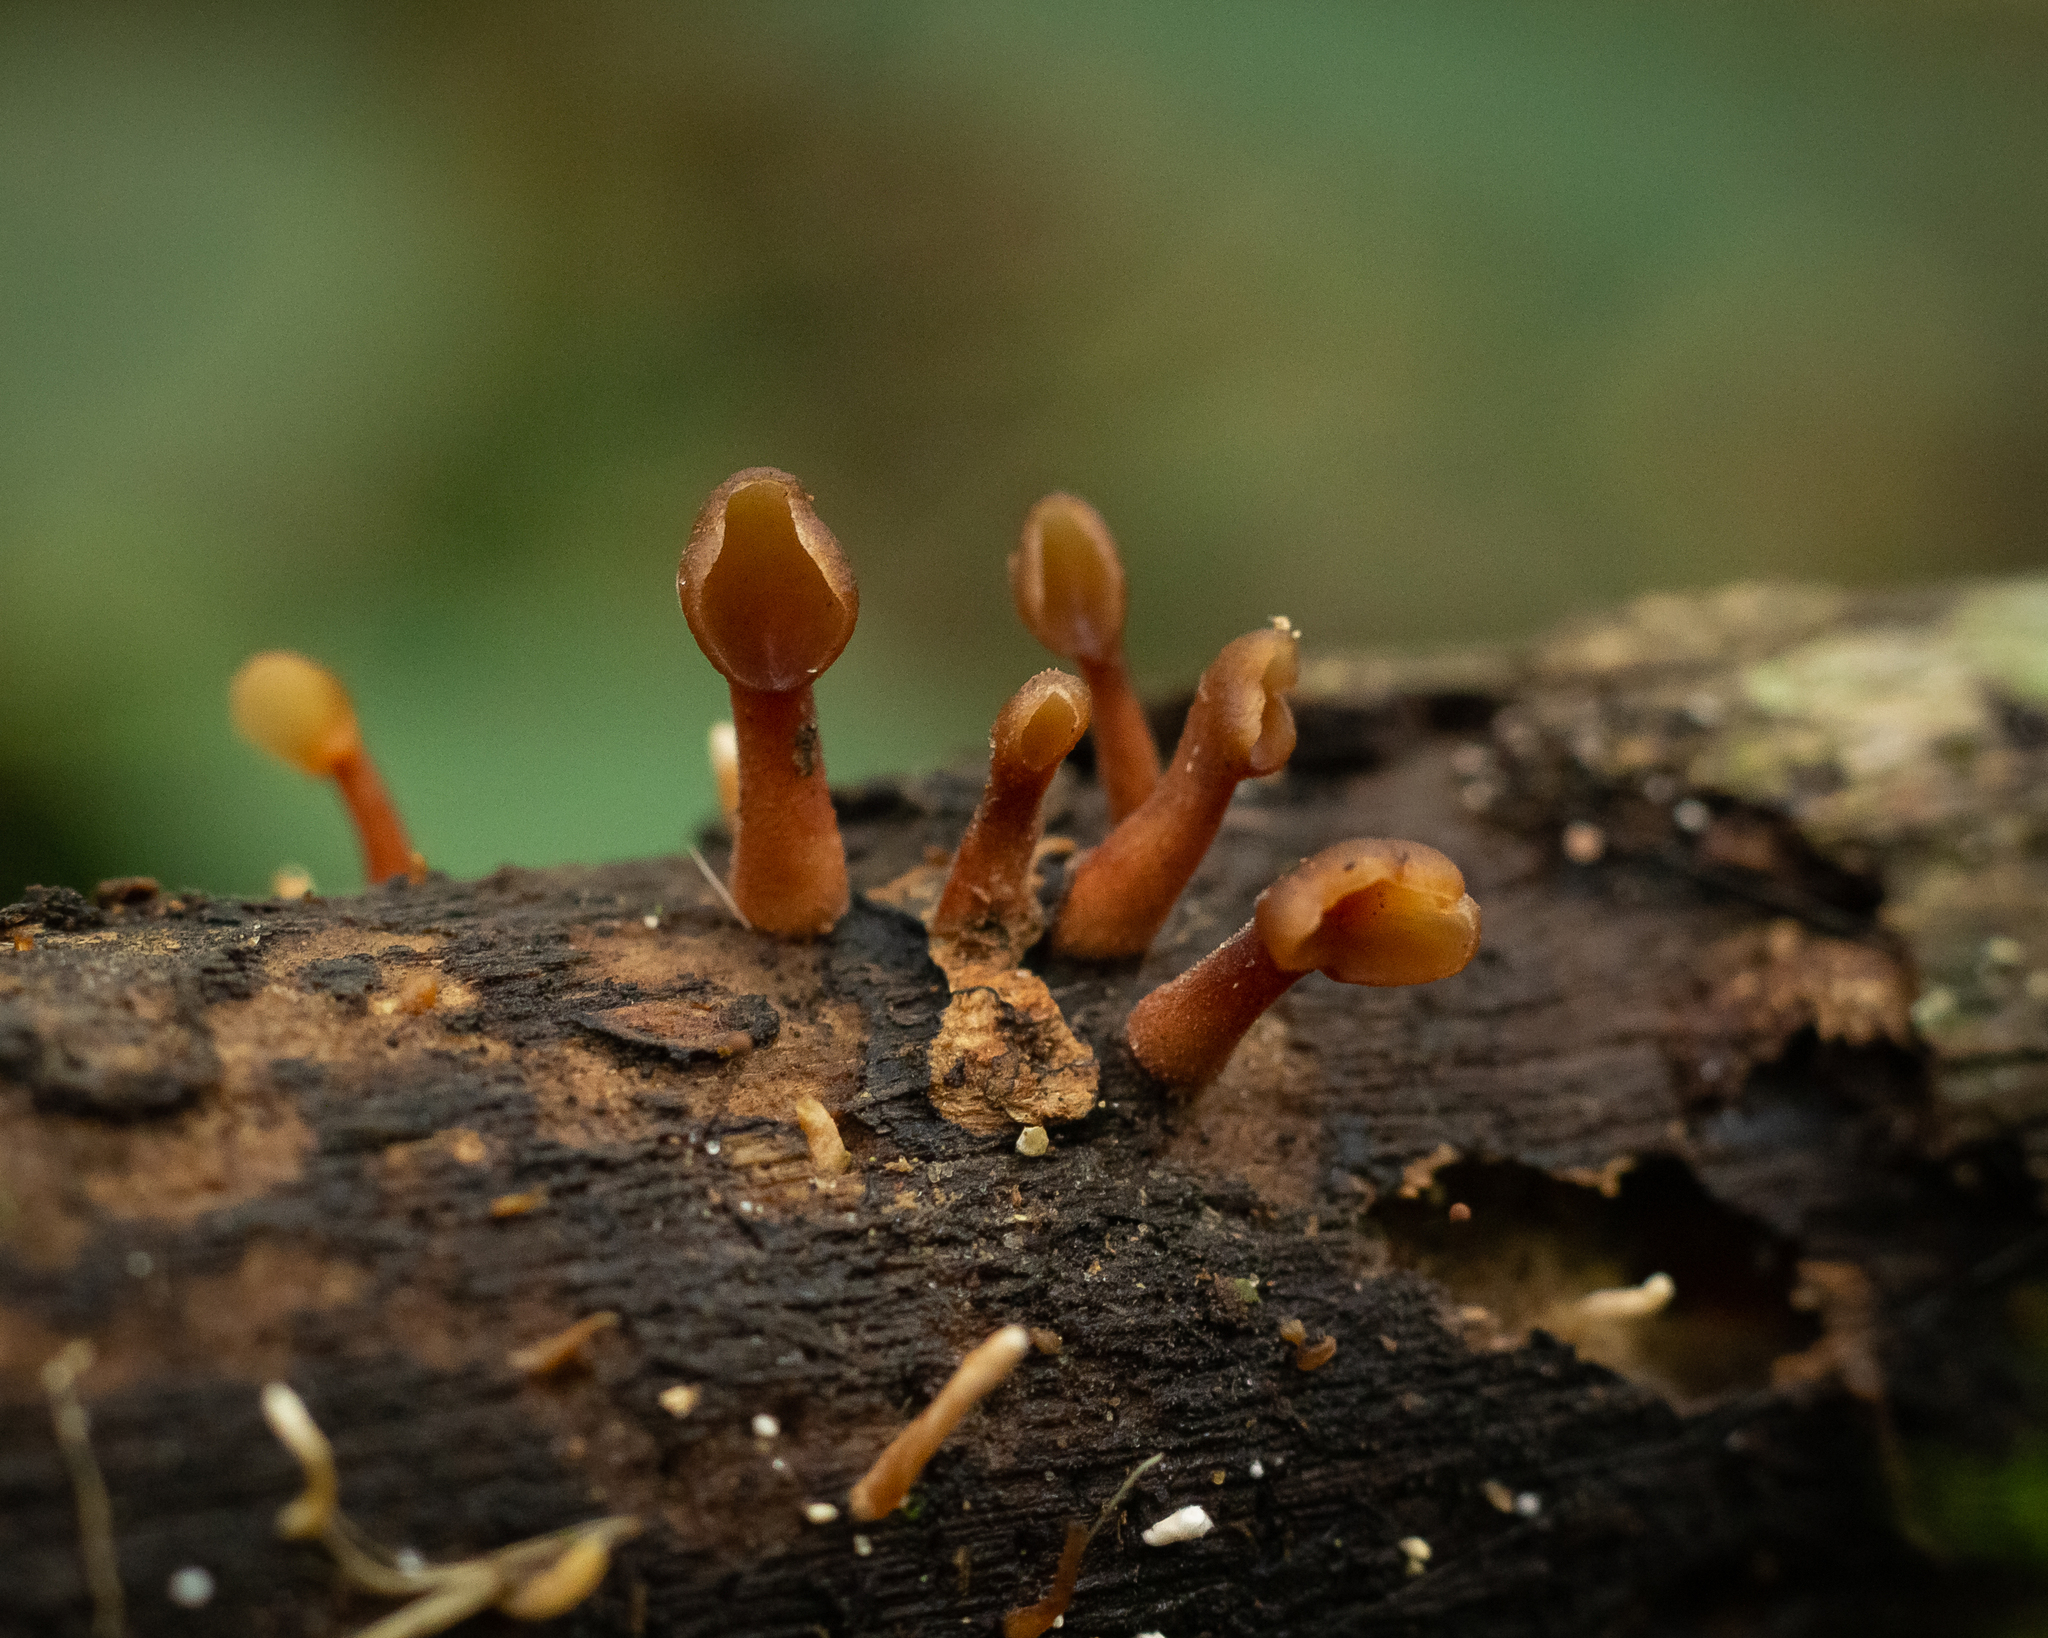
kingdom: Fungi
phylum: Basidiomycota
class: Dacrymycetes
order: Dacrymycetales
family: Dacrymycetaceae
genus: Dacryopinax
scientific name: Dacryopinax elegans
